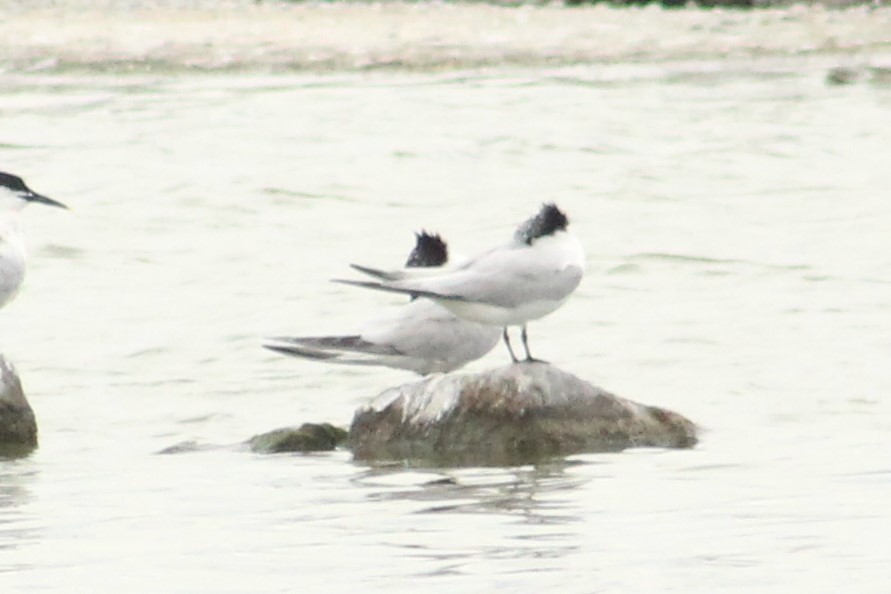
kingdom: Animalia
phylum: Chordata
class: Aves
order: Charadriiformes
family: Laridae
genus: Thalasseus
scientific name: Thalasseus sandvicensis
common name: Sandwich tern
